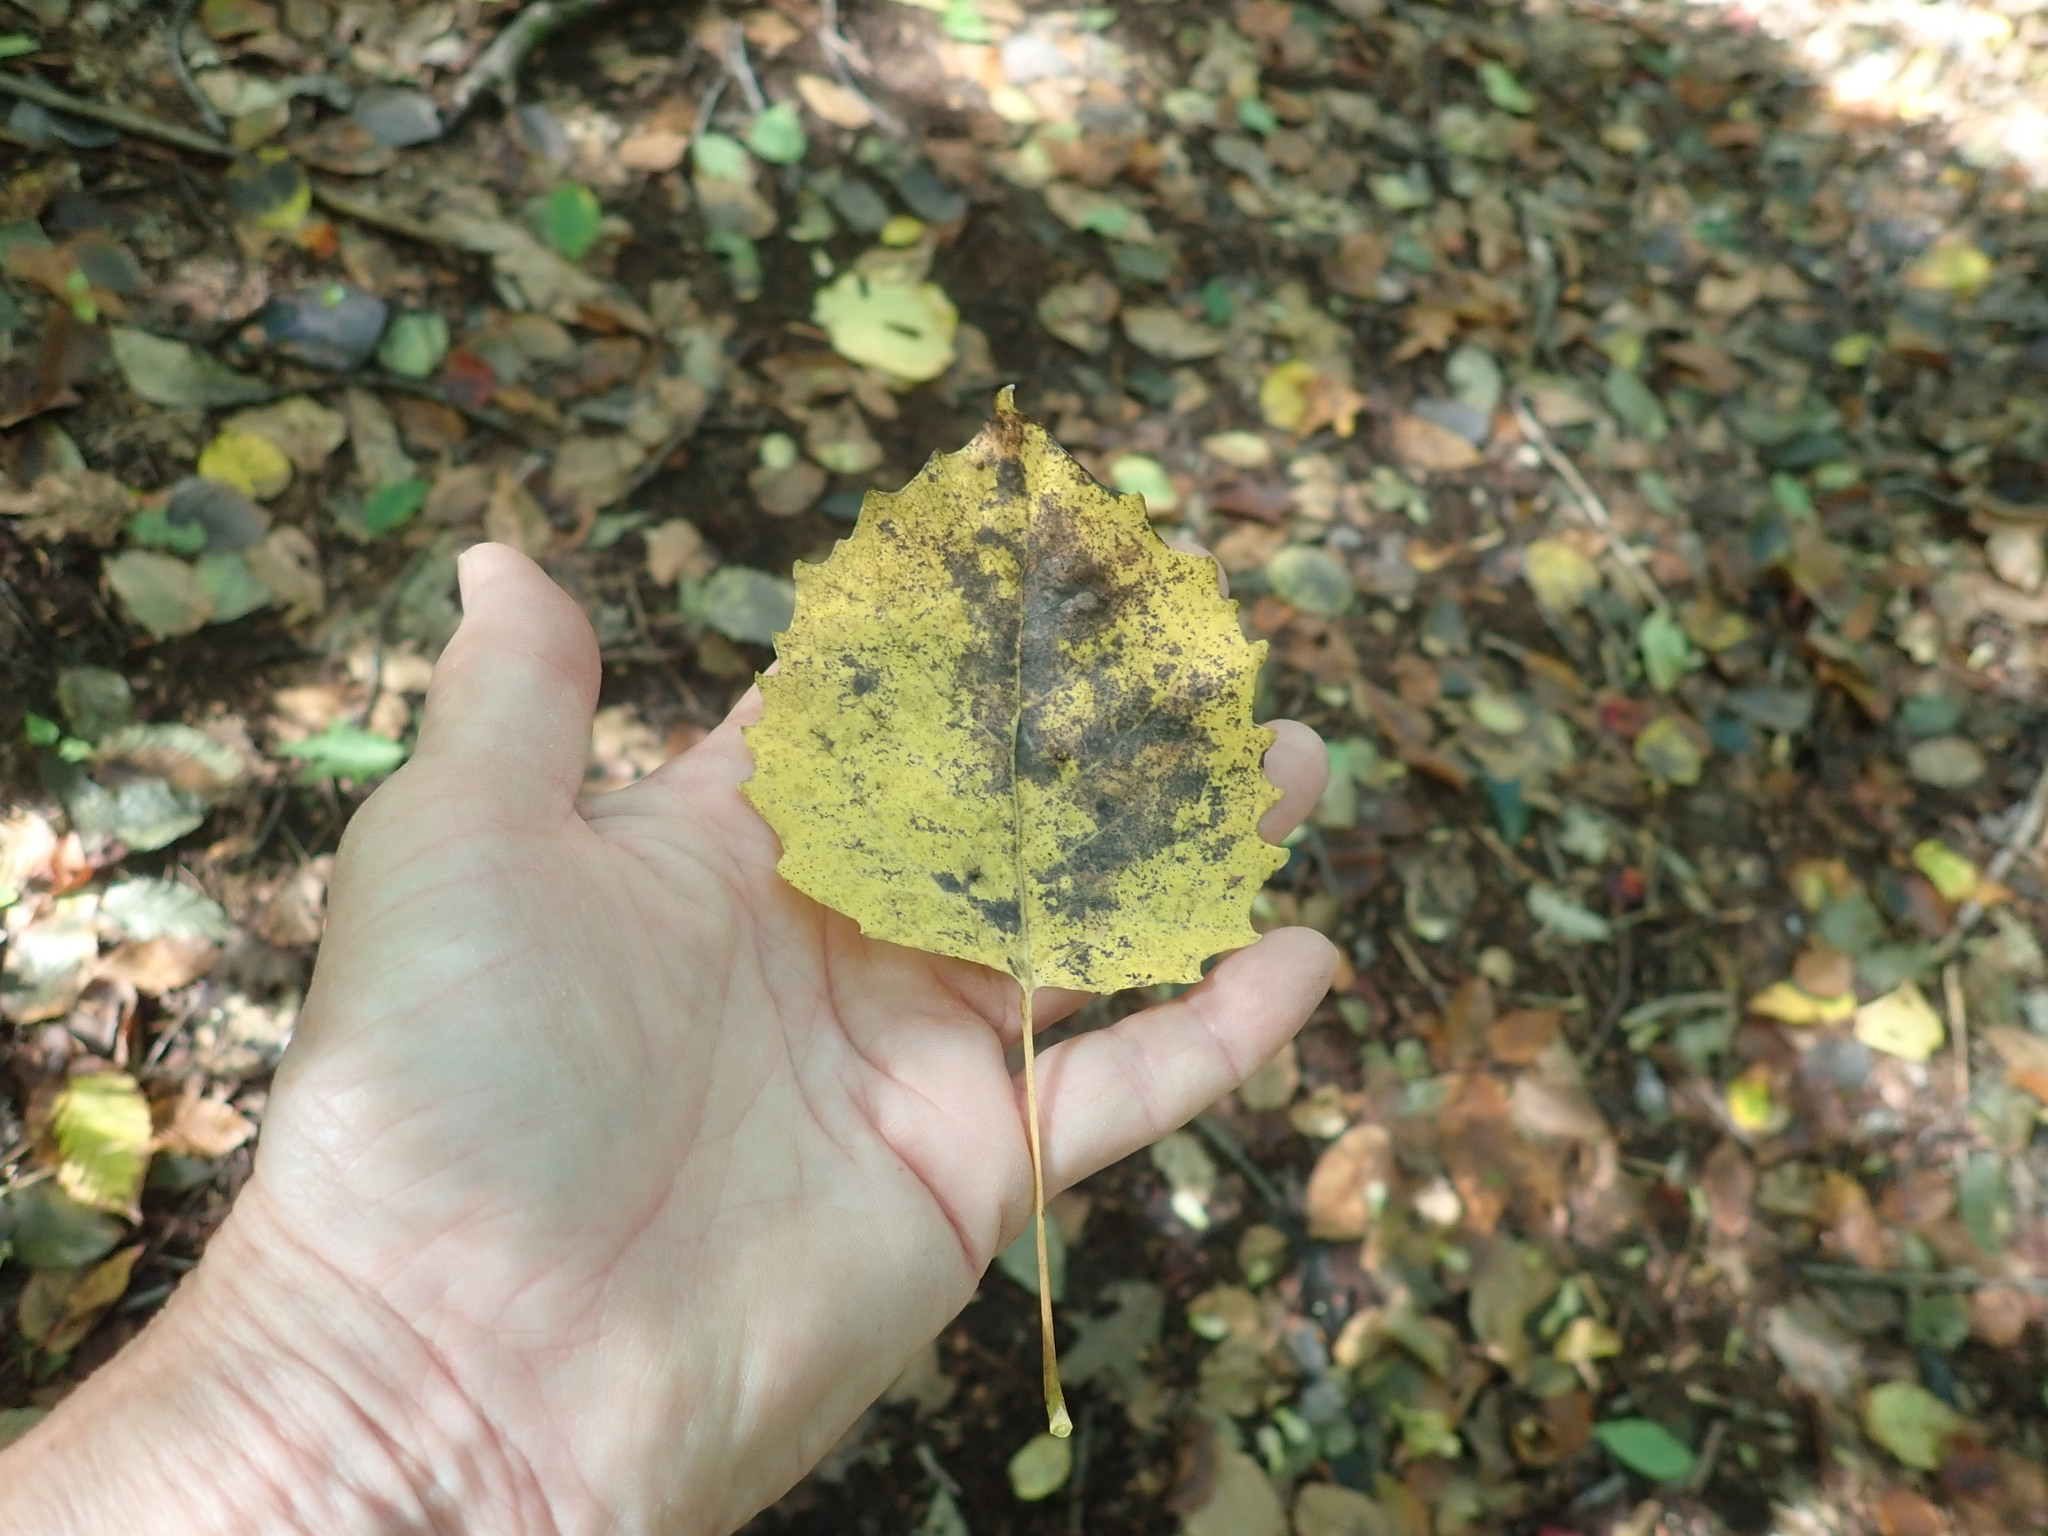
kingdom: Plantae
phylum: Tracheophyta
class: Magnoliopsida
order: Malpighiales
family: Salicaceae
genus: Populus
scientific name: Populus grandidentata
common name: Bigtooth aspen
